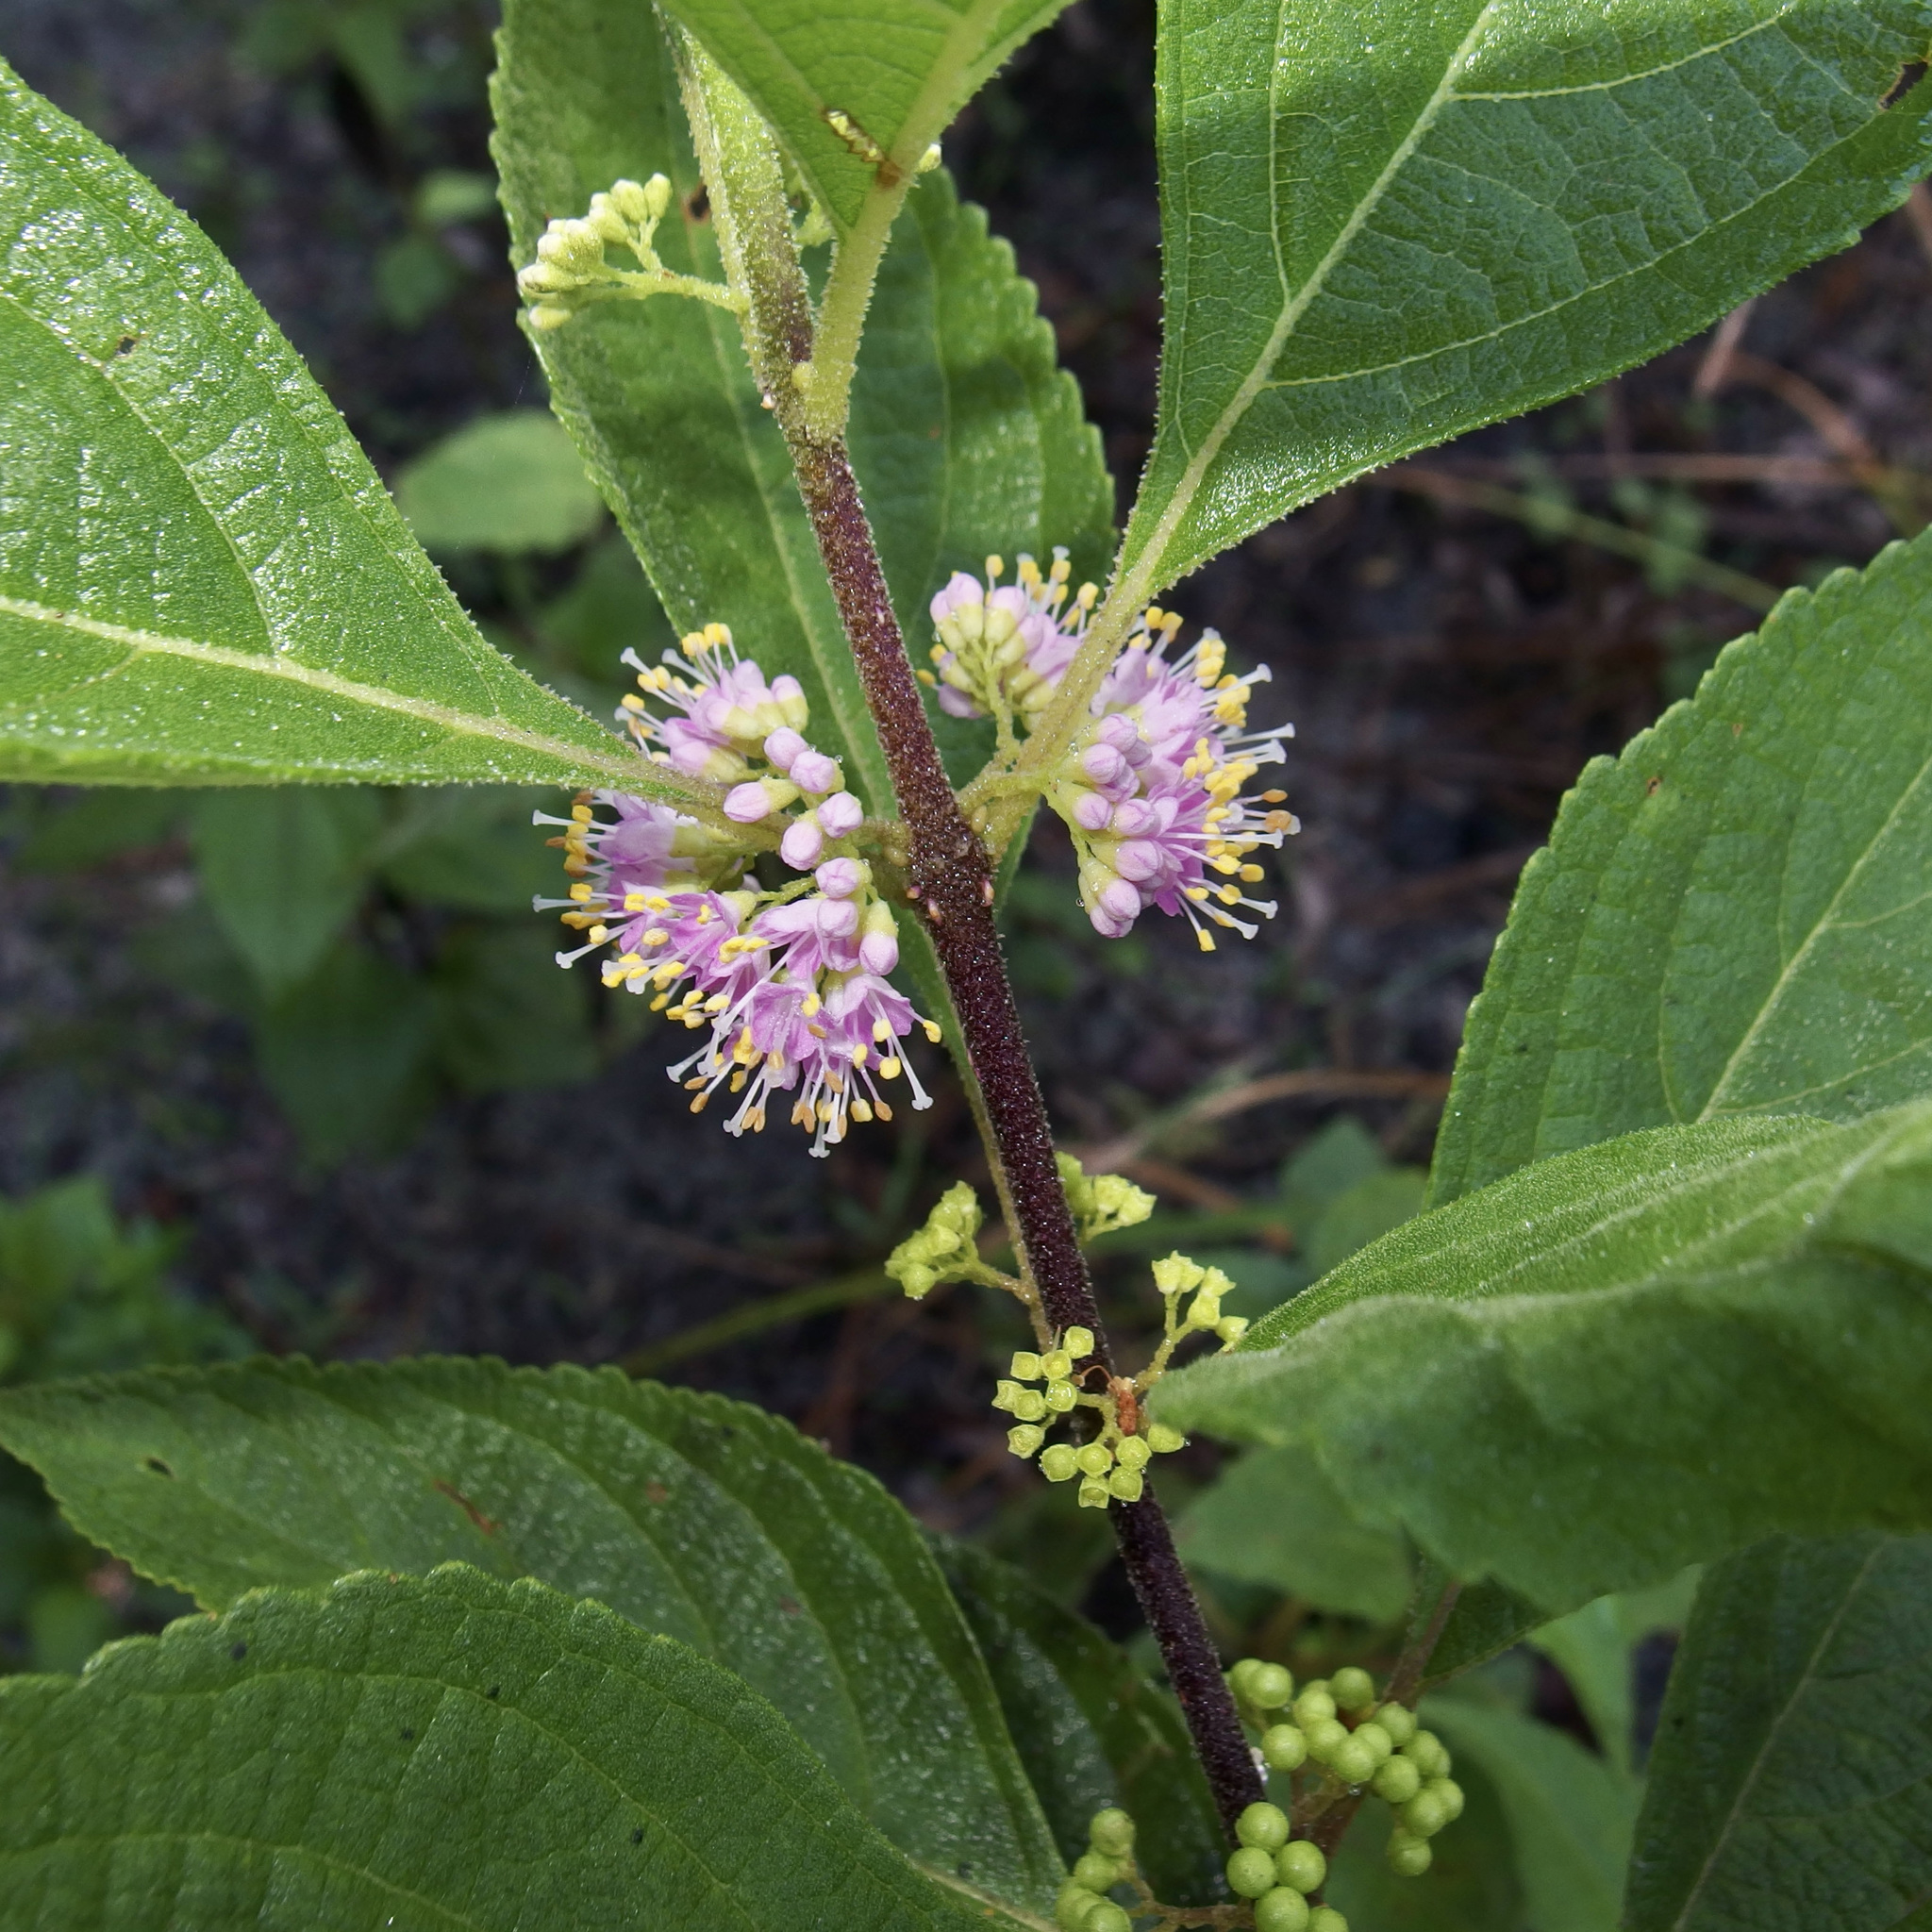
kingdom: Plantae
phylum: Tracheophyta
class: Magnoliopsida
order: Lamiales
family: Lamiaceae
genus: Callicarpa
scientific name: Callicarpa americana
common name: American beautyberry
